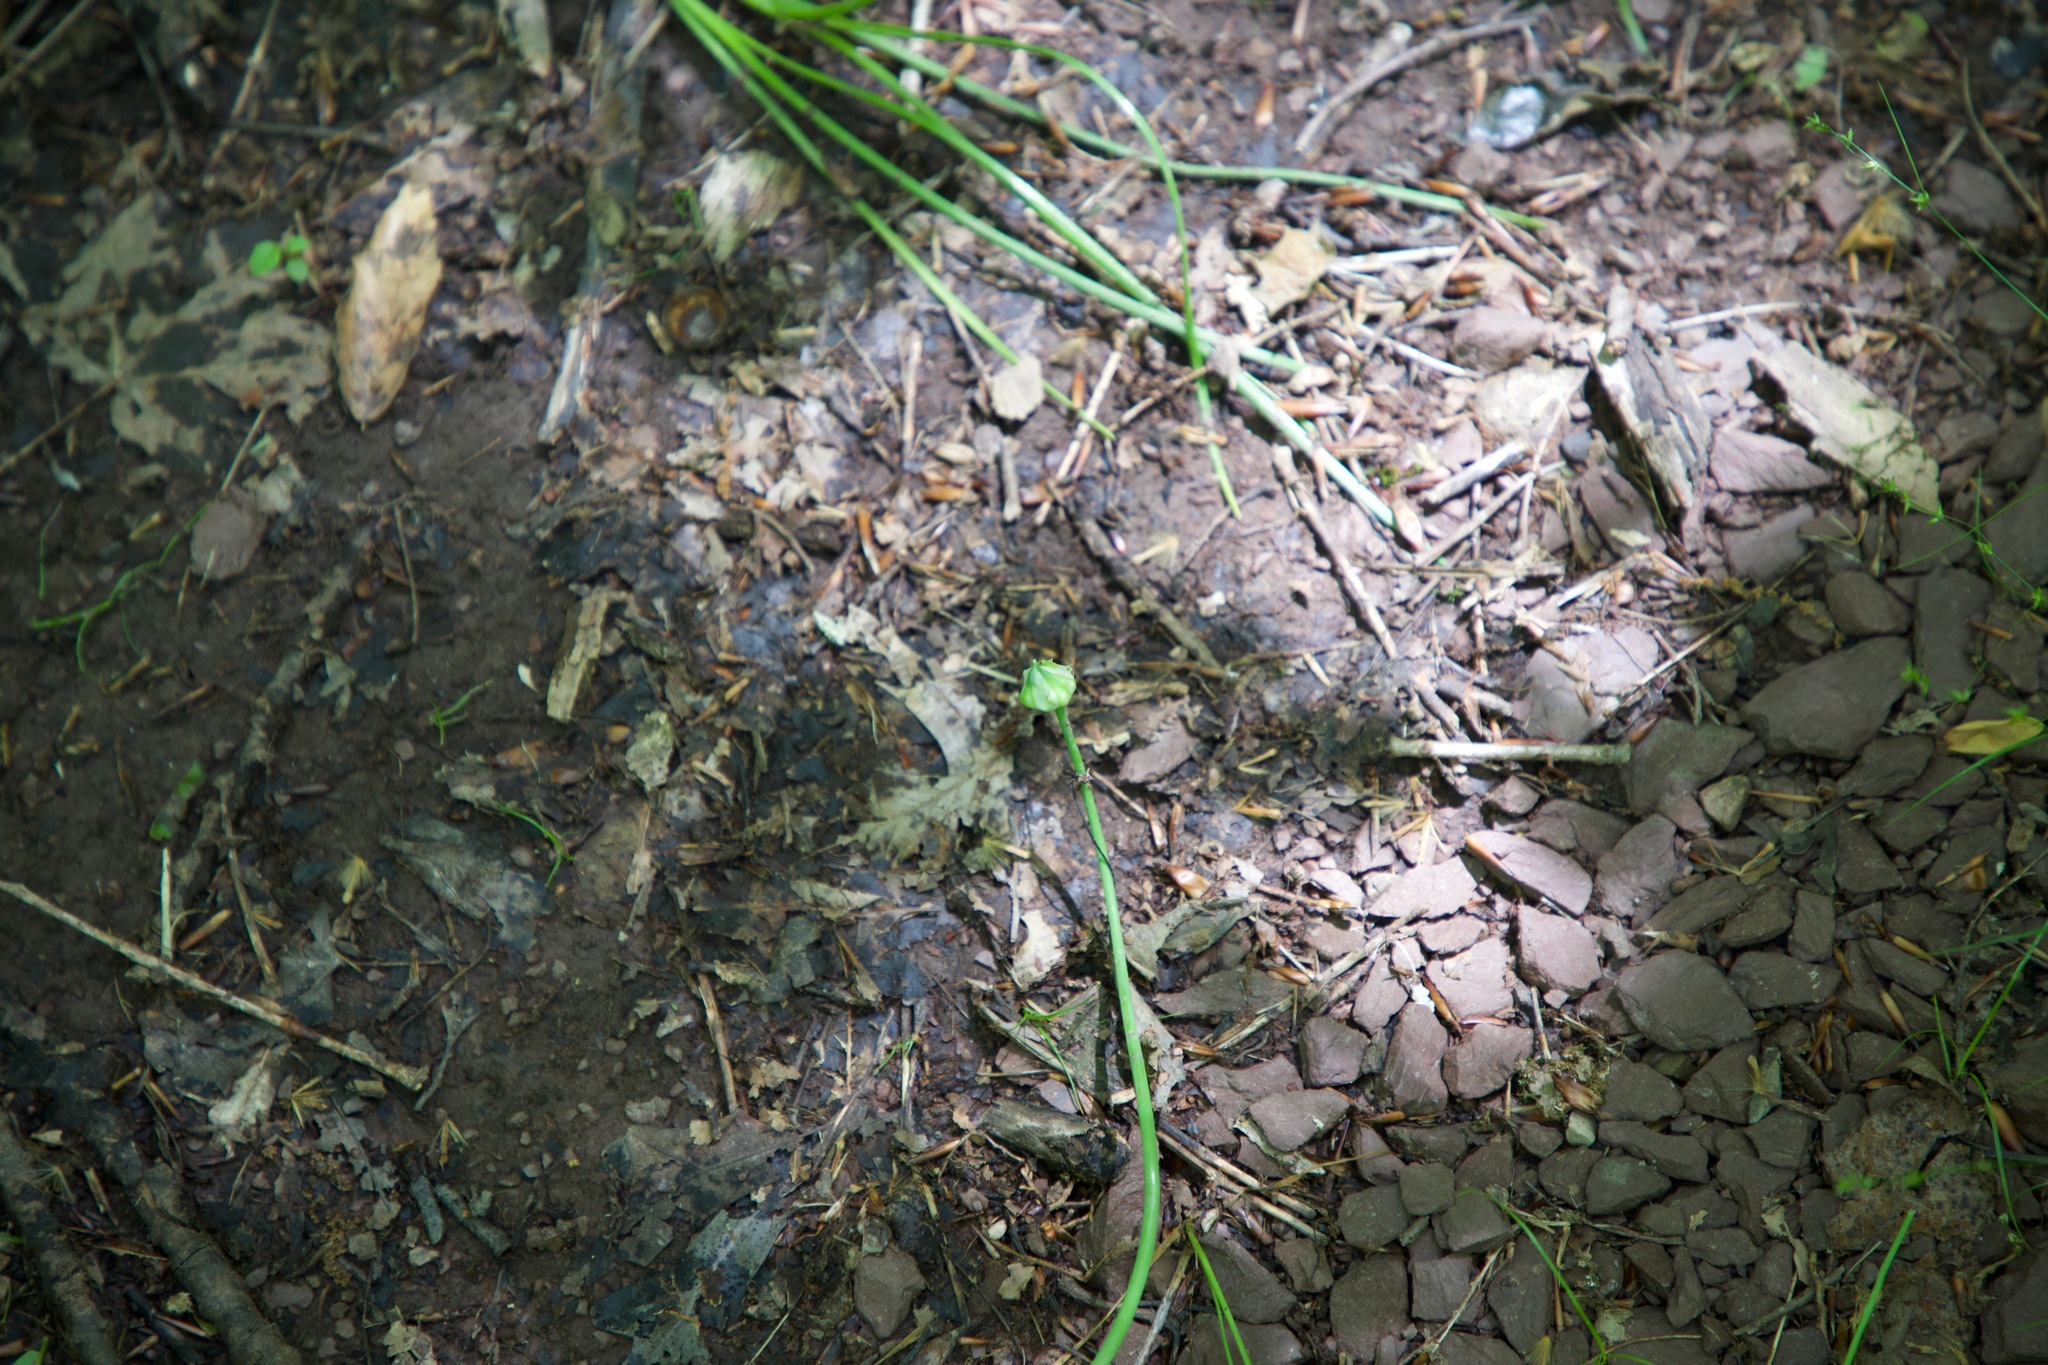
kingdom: Plantae
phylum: Tracheophyta
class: Liliopsida
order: Asparagales
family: Amaryllidaceae
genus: Allium
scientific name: Allium canadense
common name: Meadow garlic
